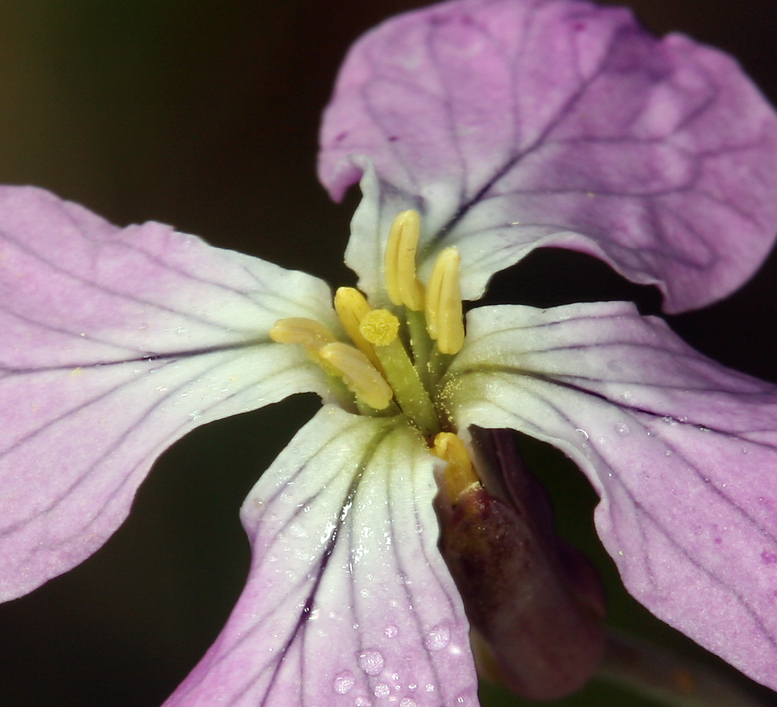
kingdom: Plantae
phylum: Tracheophyta
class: Magnoliopsida
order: Brassicales
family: Brassicaceae
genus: Raphanus
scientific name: Raphanus sativus
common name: Cultivated radish
